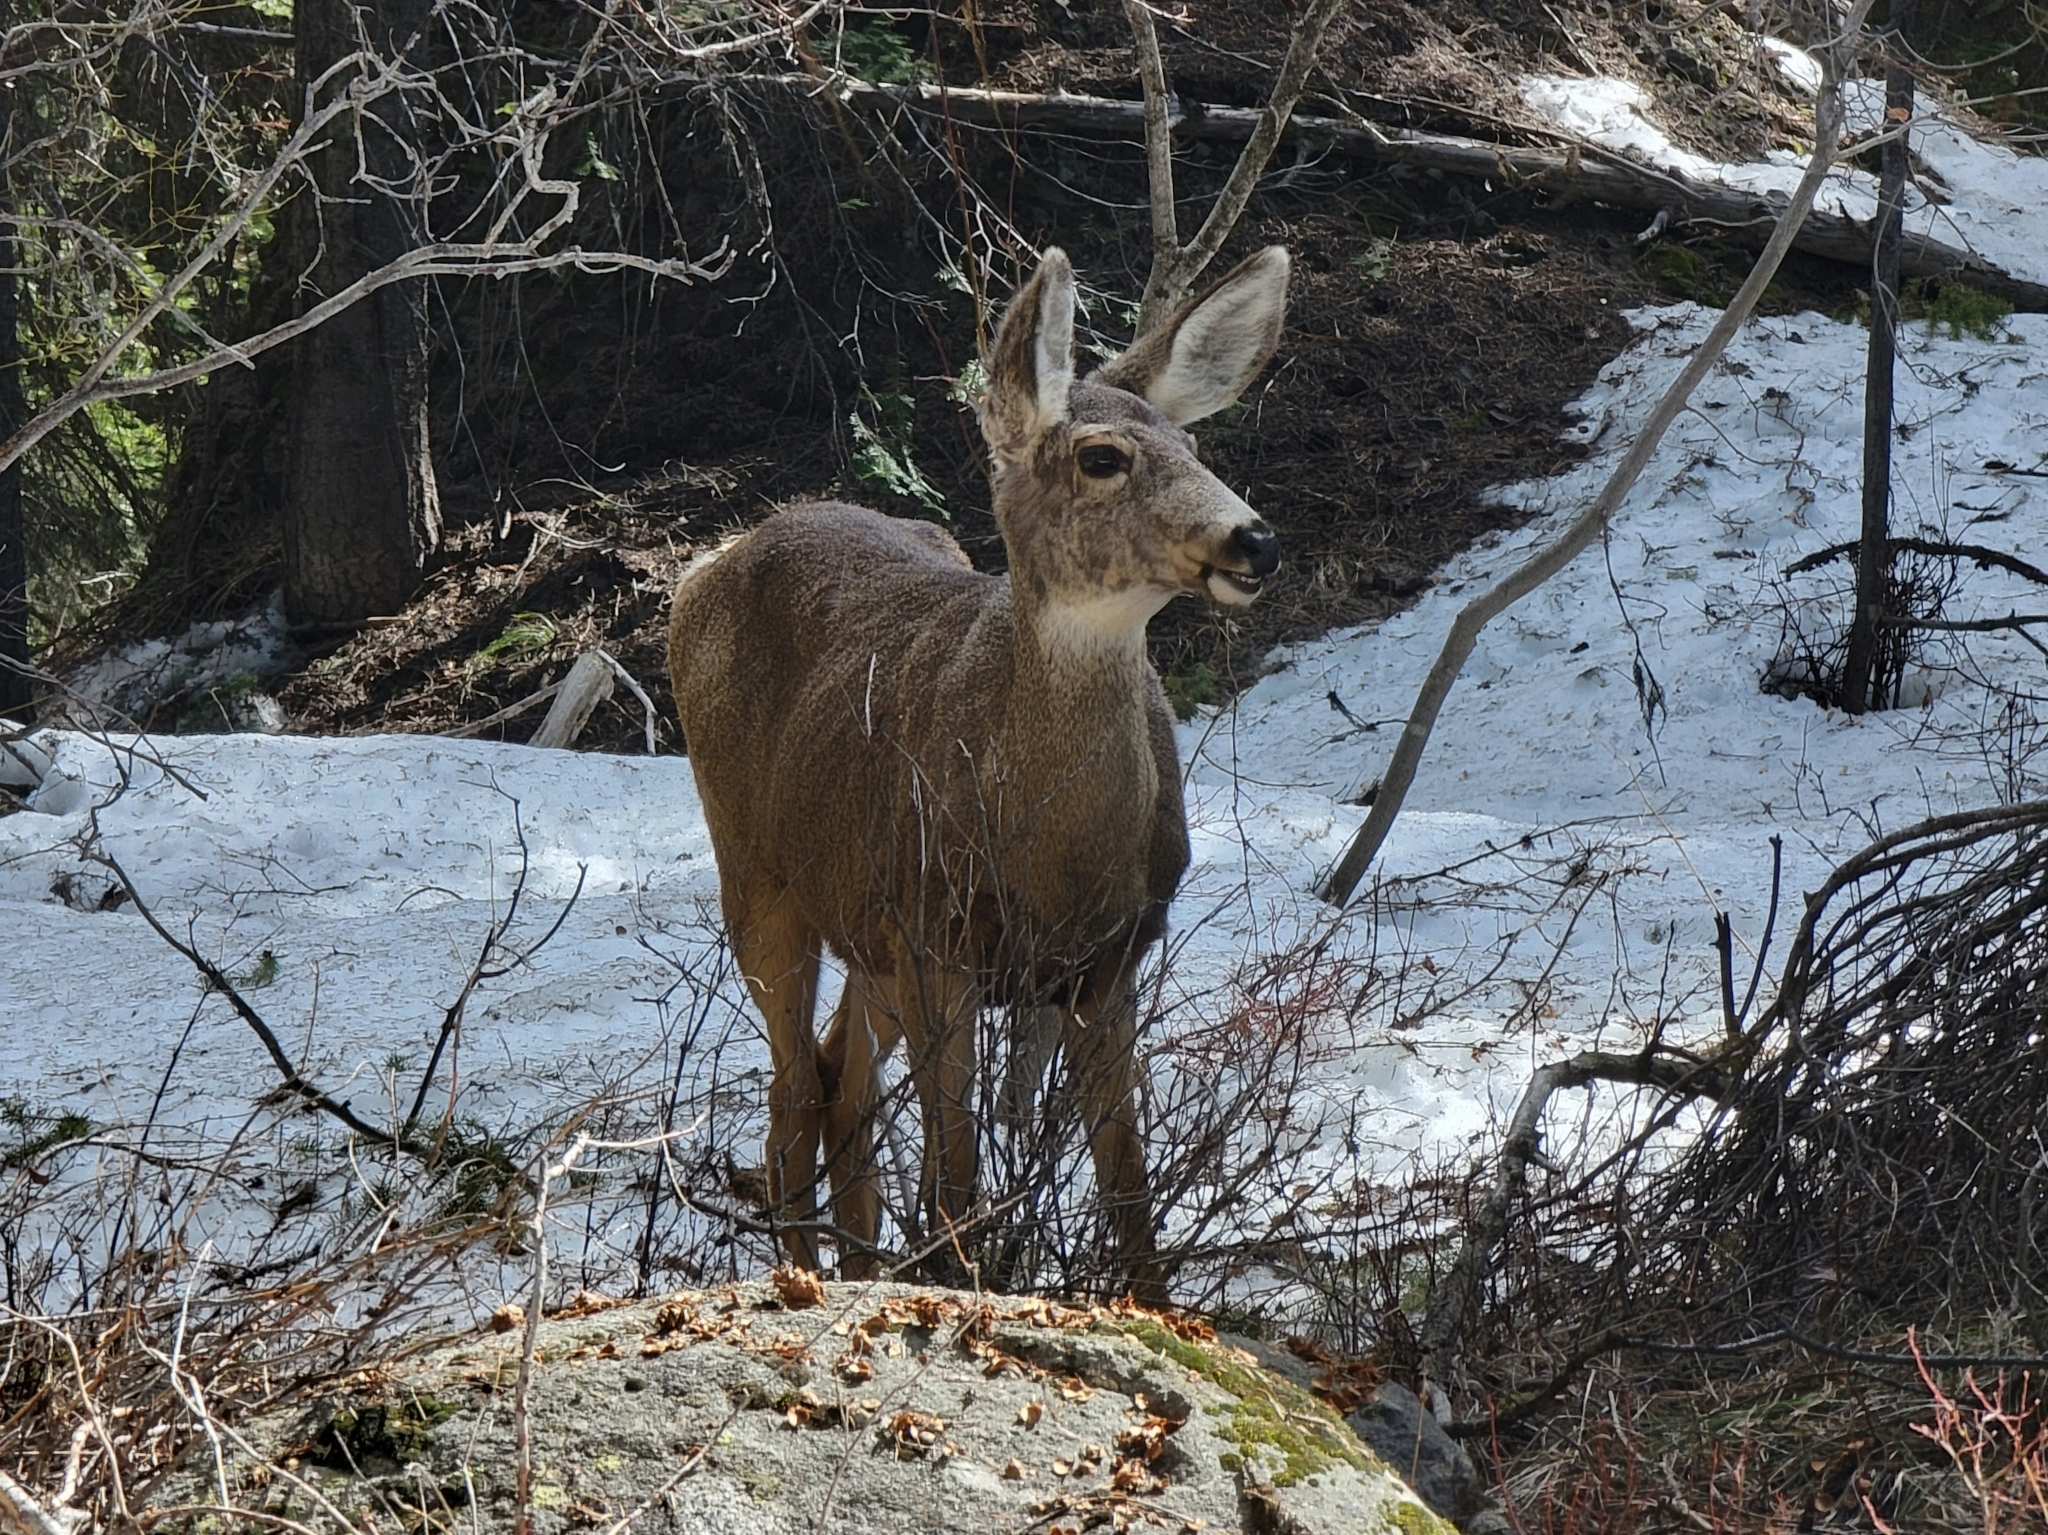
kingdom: Animalia
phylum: Chordata
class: Mammalia
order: Artiodactyla
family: Cervidae
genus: Odocoileus
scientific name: Odocoileus hemionus
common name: Mule deer
